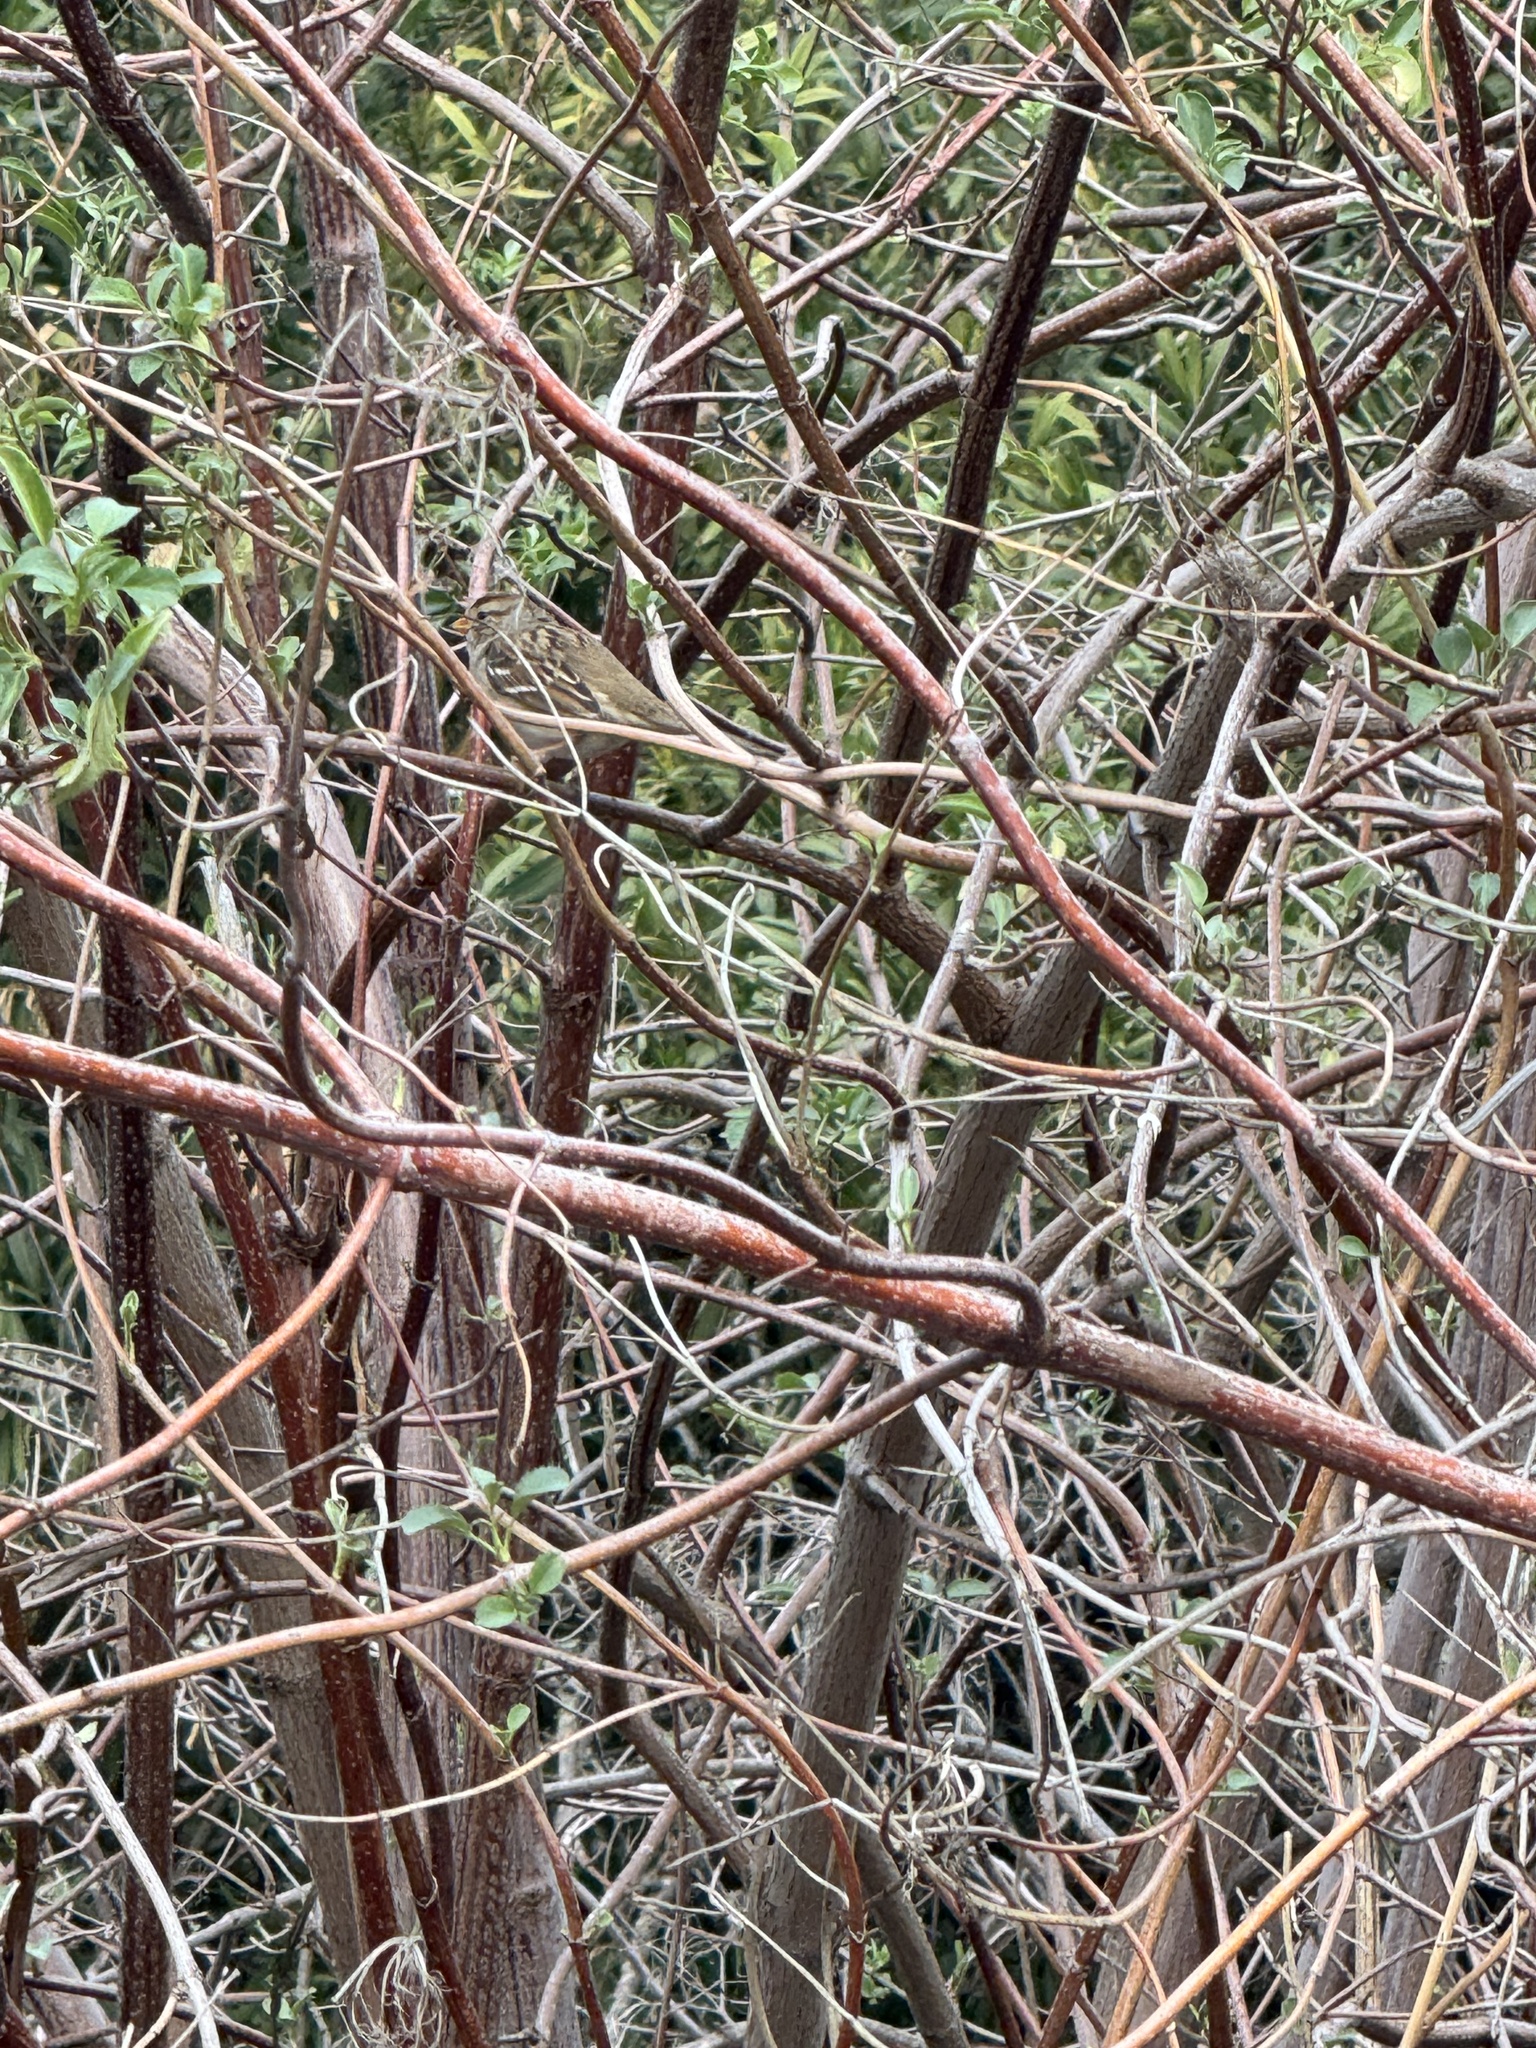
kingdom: Animalia
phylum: Chordata
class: Aves
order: Passeriformes
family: Passerellidae
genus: Zonotrichia
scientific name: Zonotrichia leucophrys
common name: White-crowned sparrow
